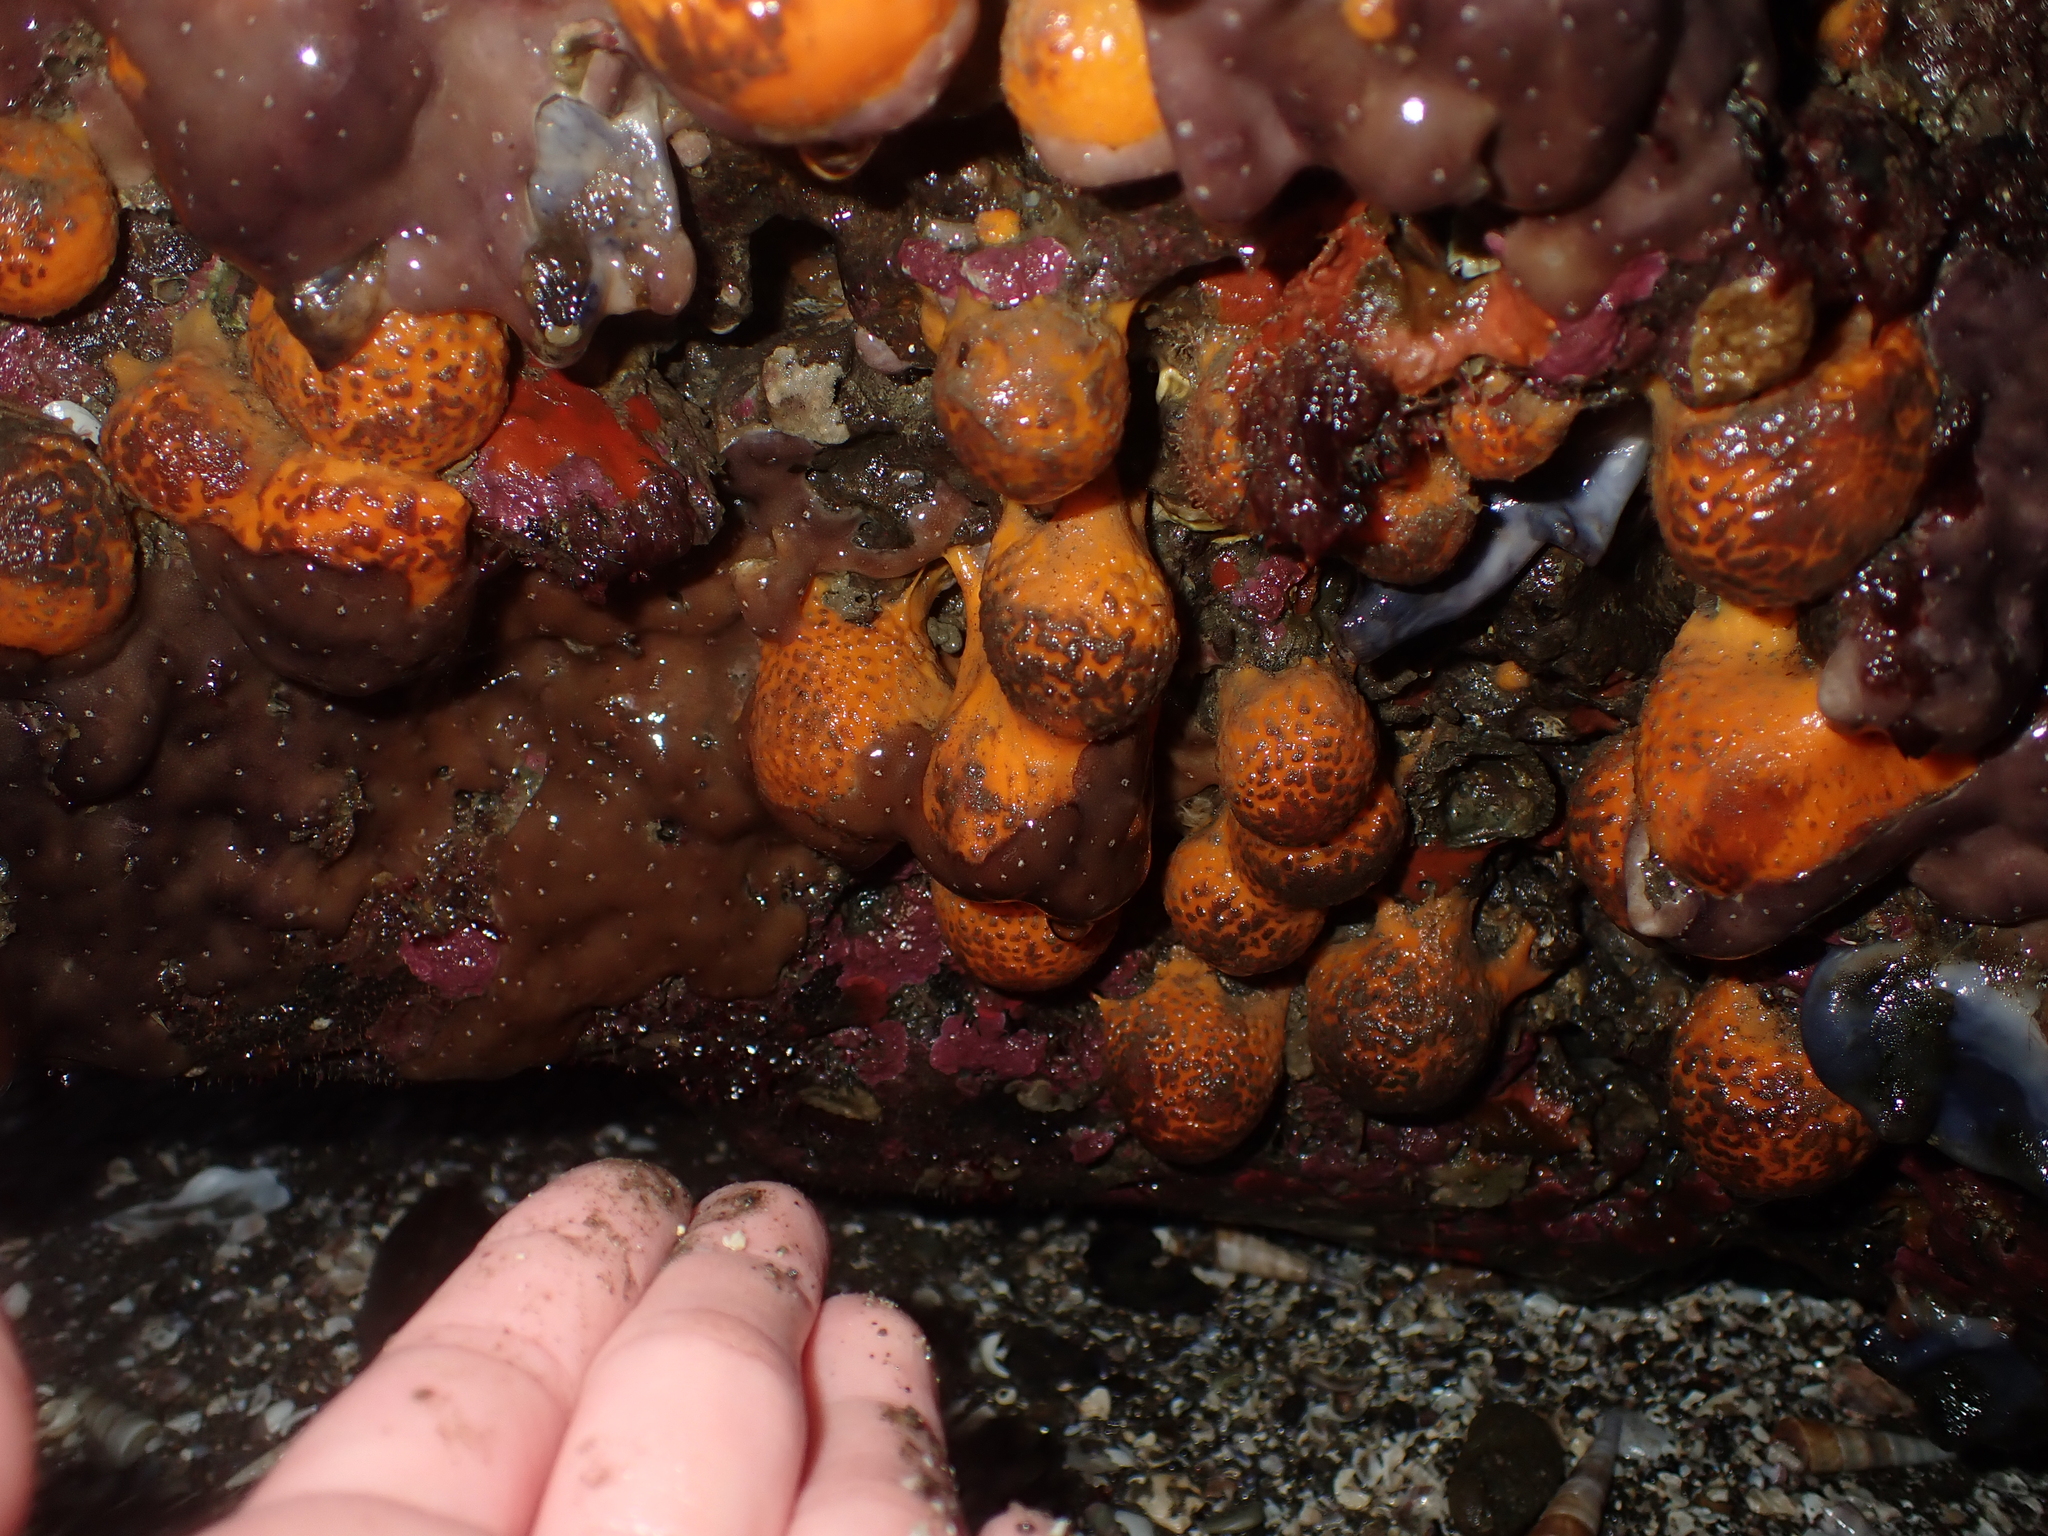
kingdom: Animalia
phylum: Porifera
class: Demospongiae
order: Tethyida
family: Tethyidae
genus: Tethya
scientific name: Tethya burtoni
